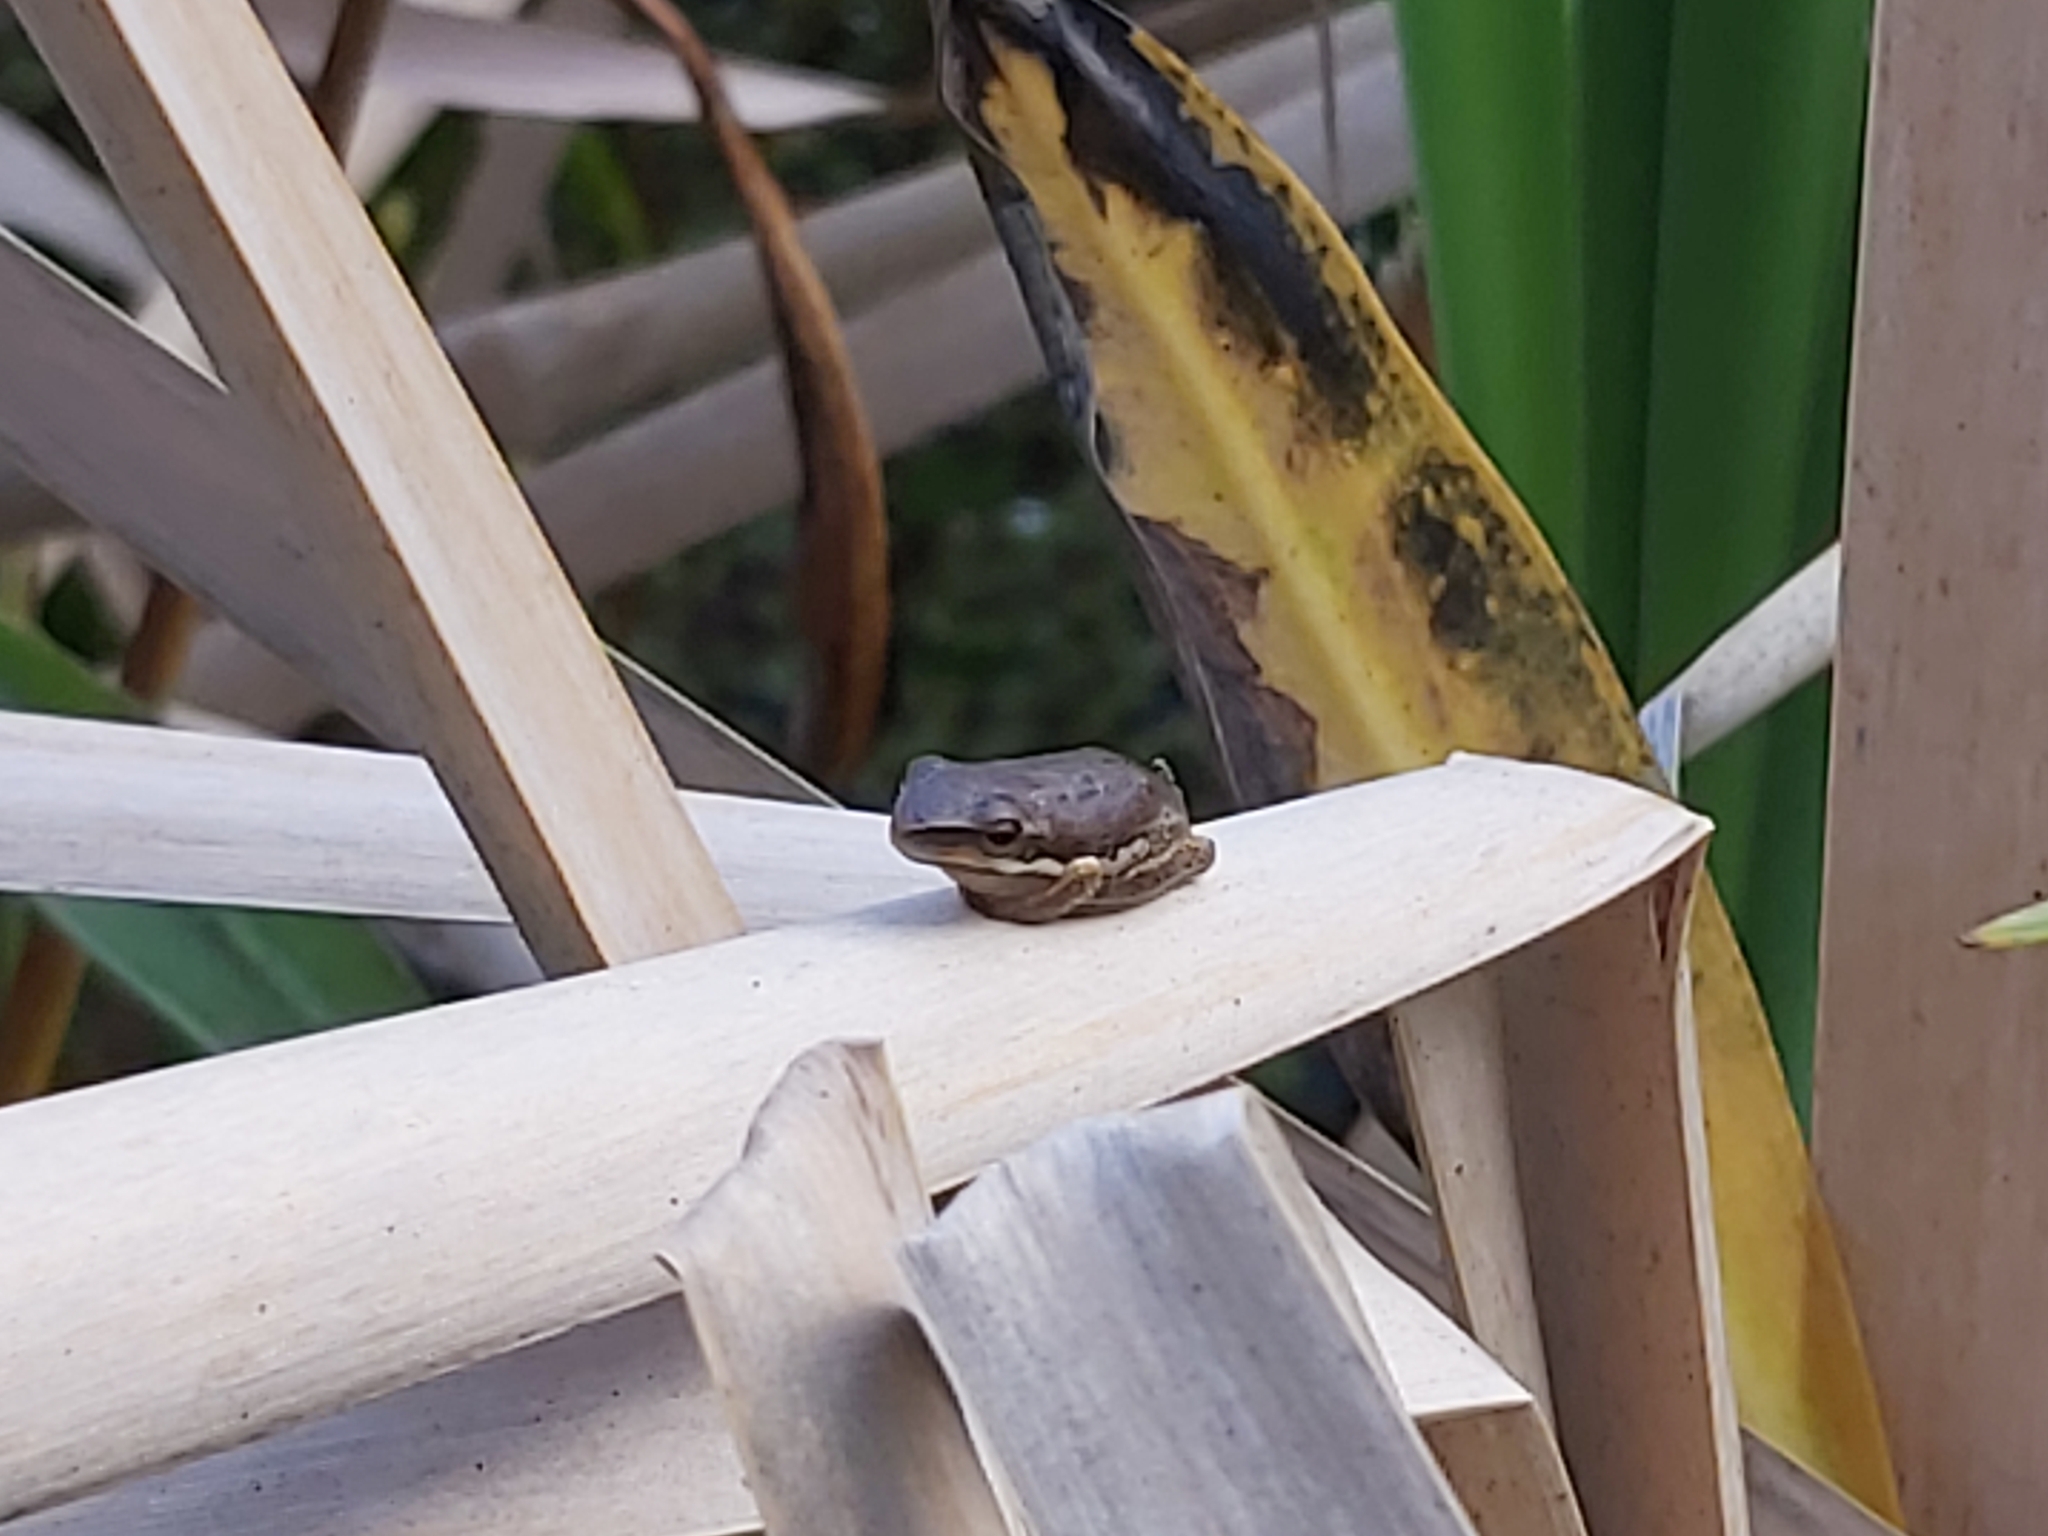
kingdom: Animalia
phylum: Chordata
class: Amphibia
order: Anura
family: Pelodryadidae
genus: Litoria
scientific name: Litoria fallax
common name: Eastern dwarf treefrog
